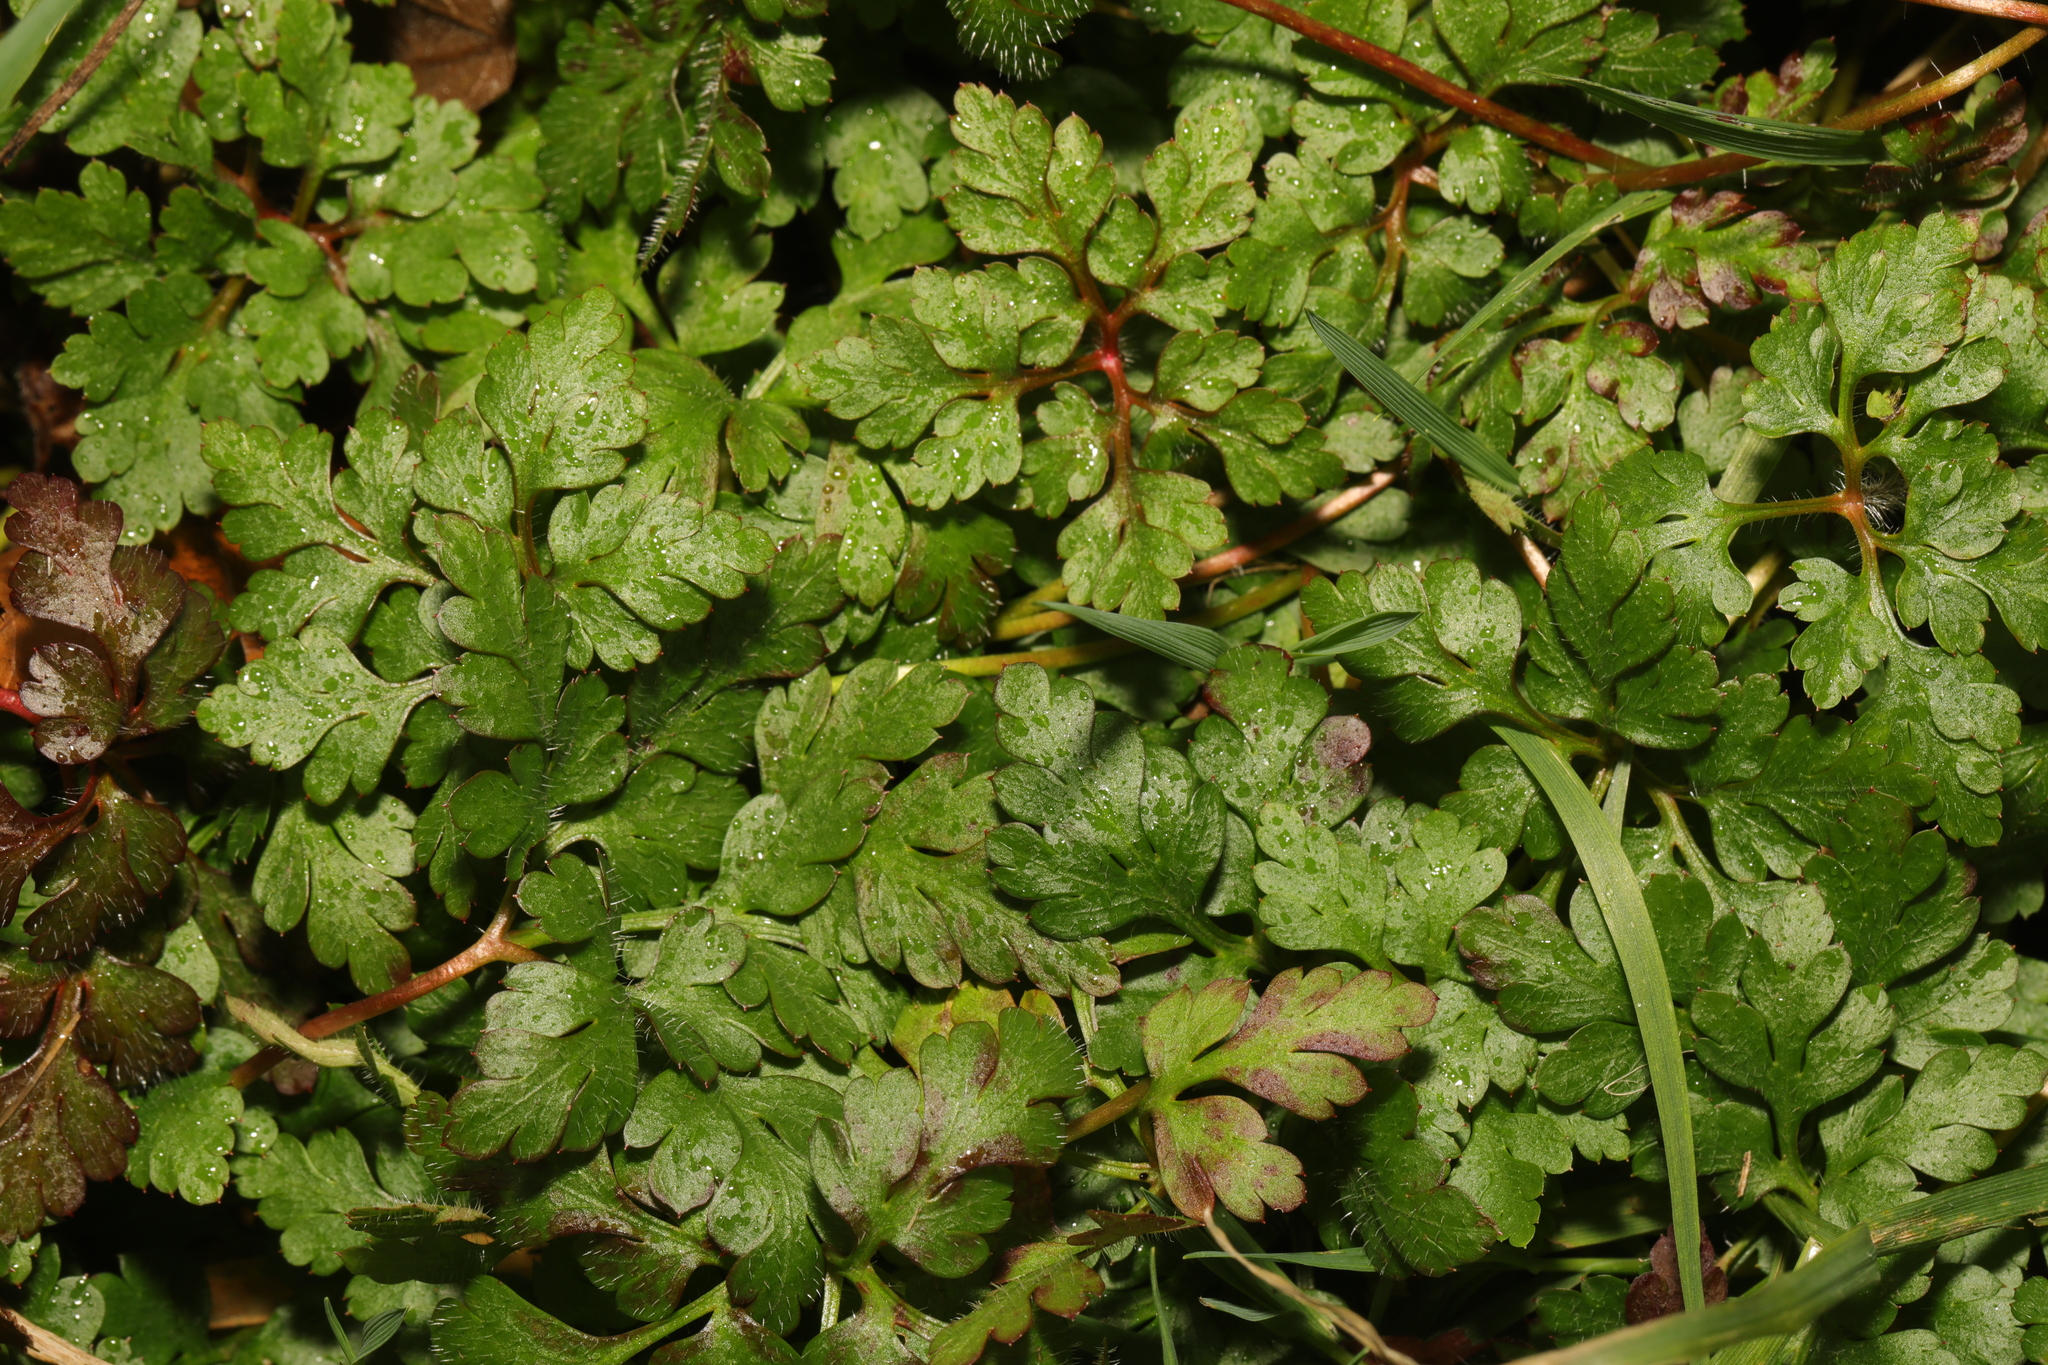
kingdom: Plantae
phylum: Tracheophyta
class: Magnoliopsida
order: Geraniales
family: Geraniaceae
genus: Geranium
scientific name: Geranium robertianum
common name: Herb-robert
